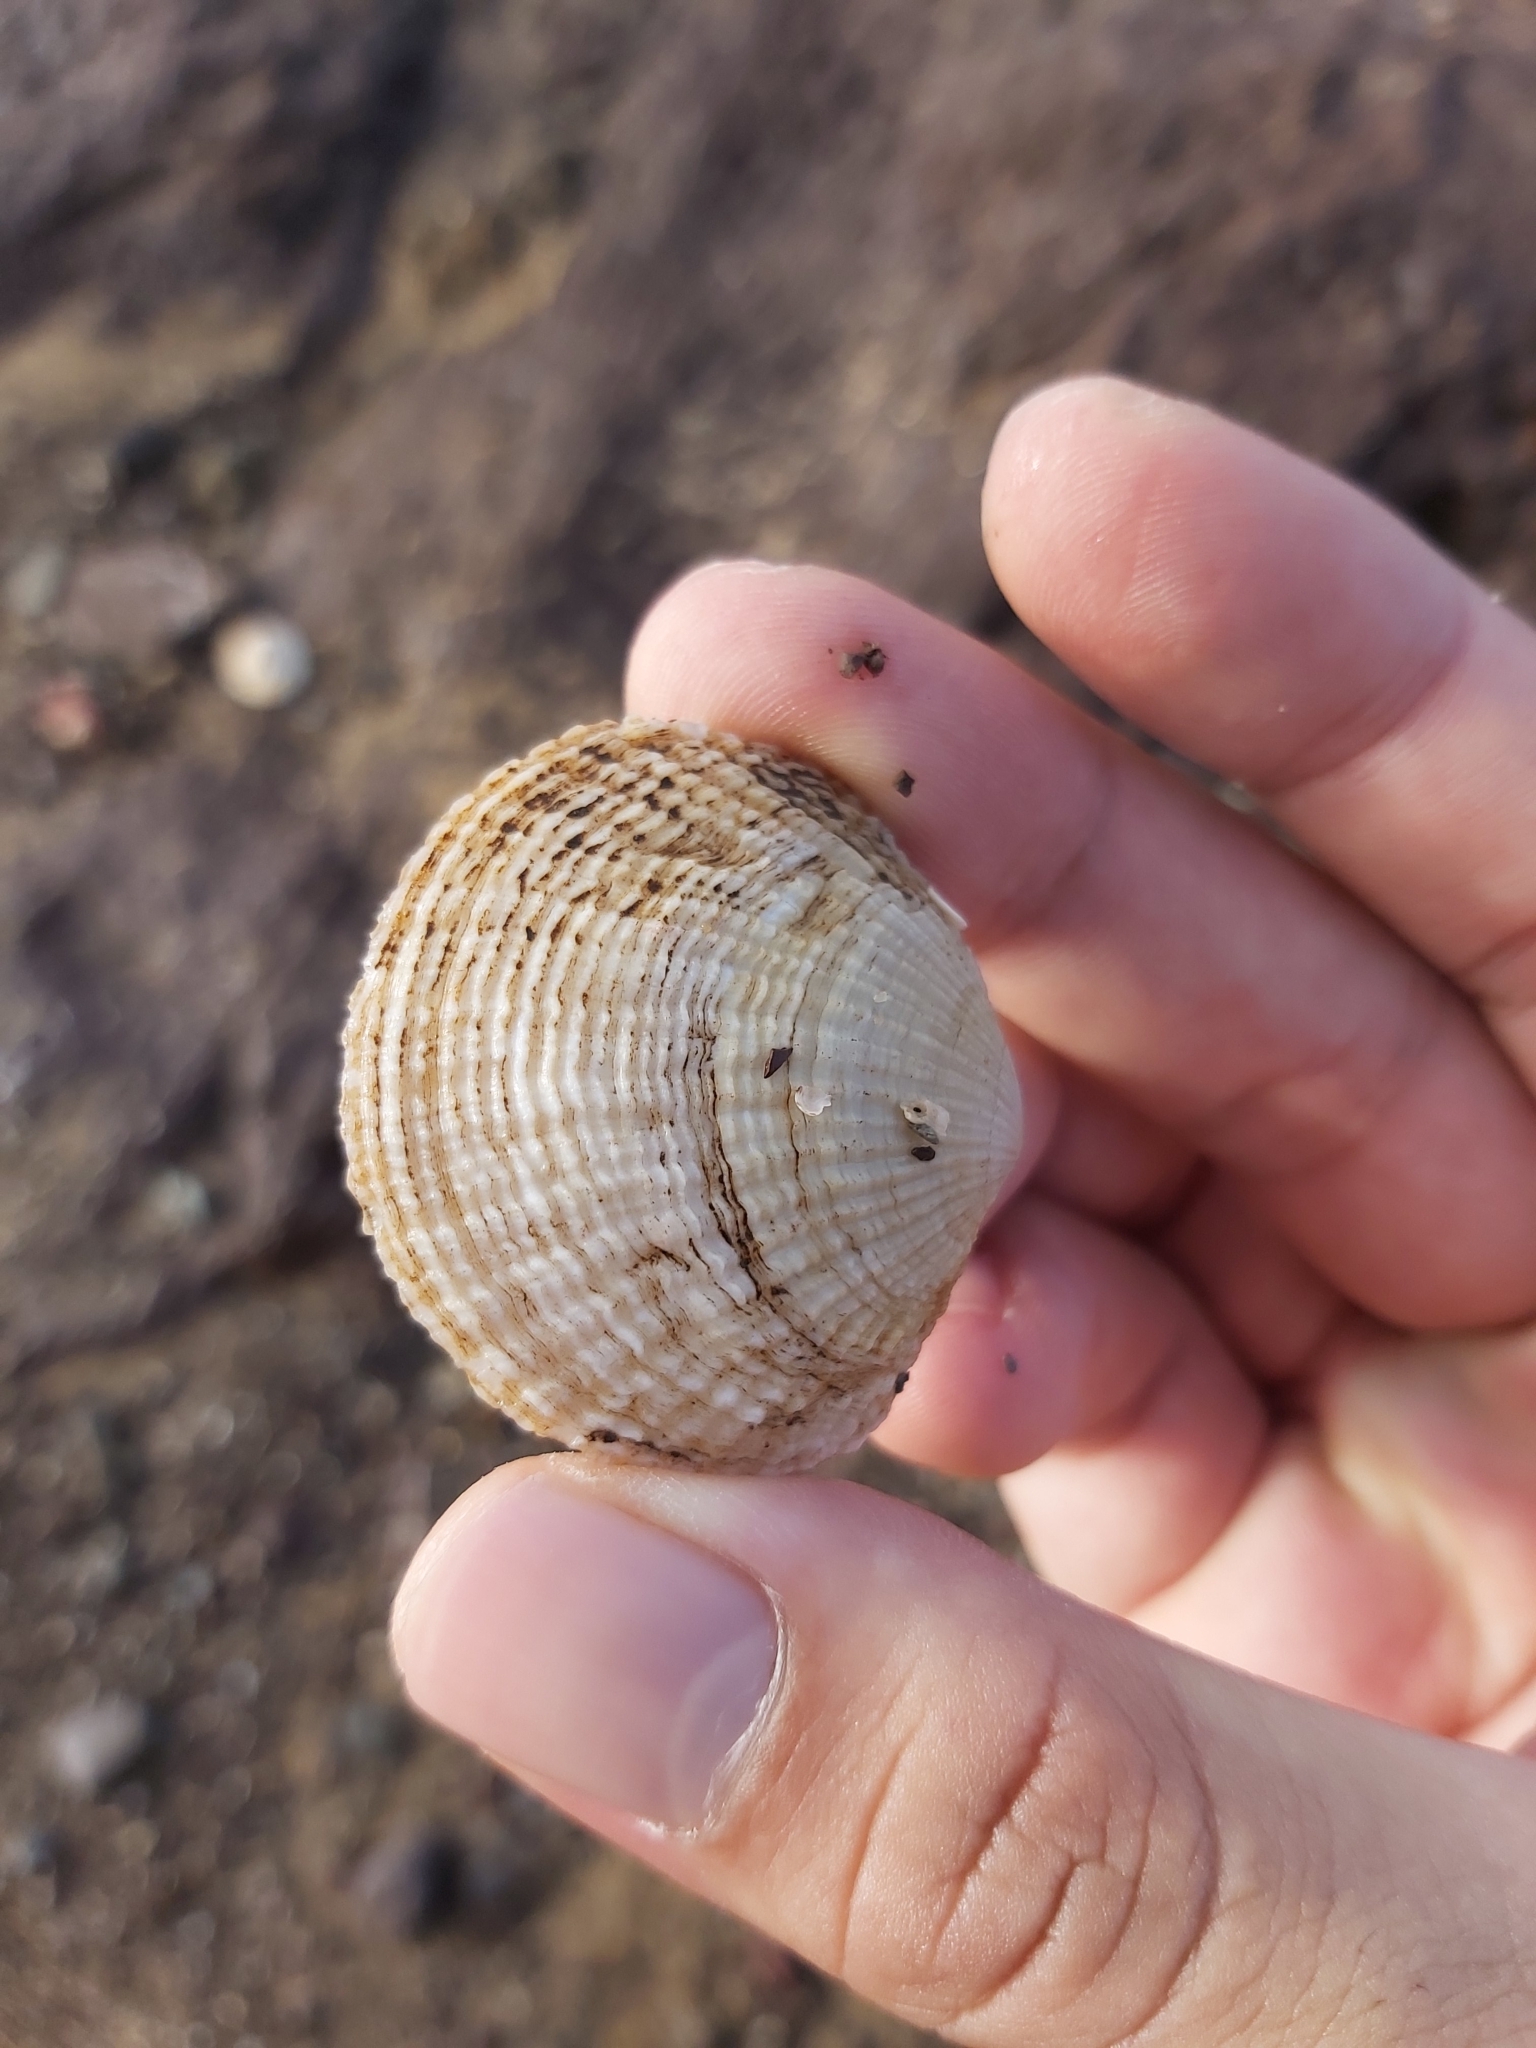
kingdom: Animalia
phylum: Mollusca
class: Bivalvia
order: Lucinida
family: Lucinidae
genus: Codakia
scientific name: Codakia rugifera
